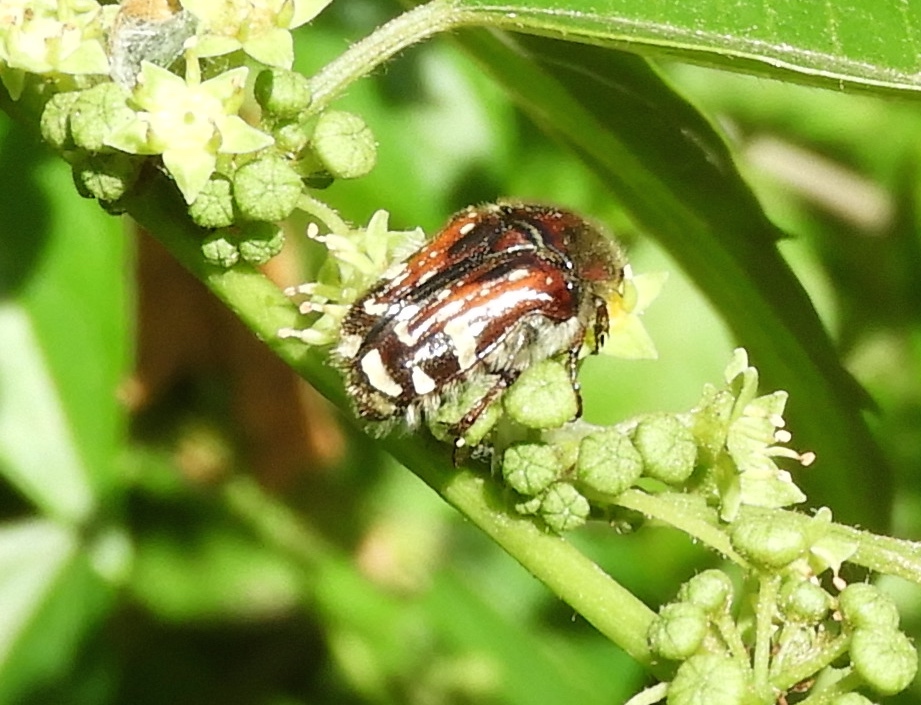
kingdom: Animalia
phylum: Arthropoda
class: Insecta
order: Coleoptera
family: Scarabaeidae
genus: Euphoria
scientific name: Euphoria pulchella
